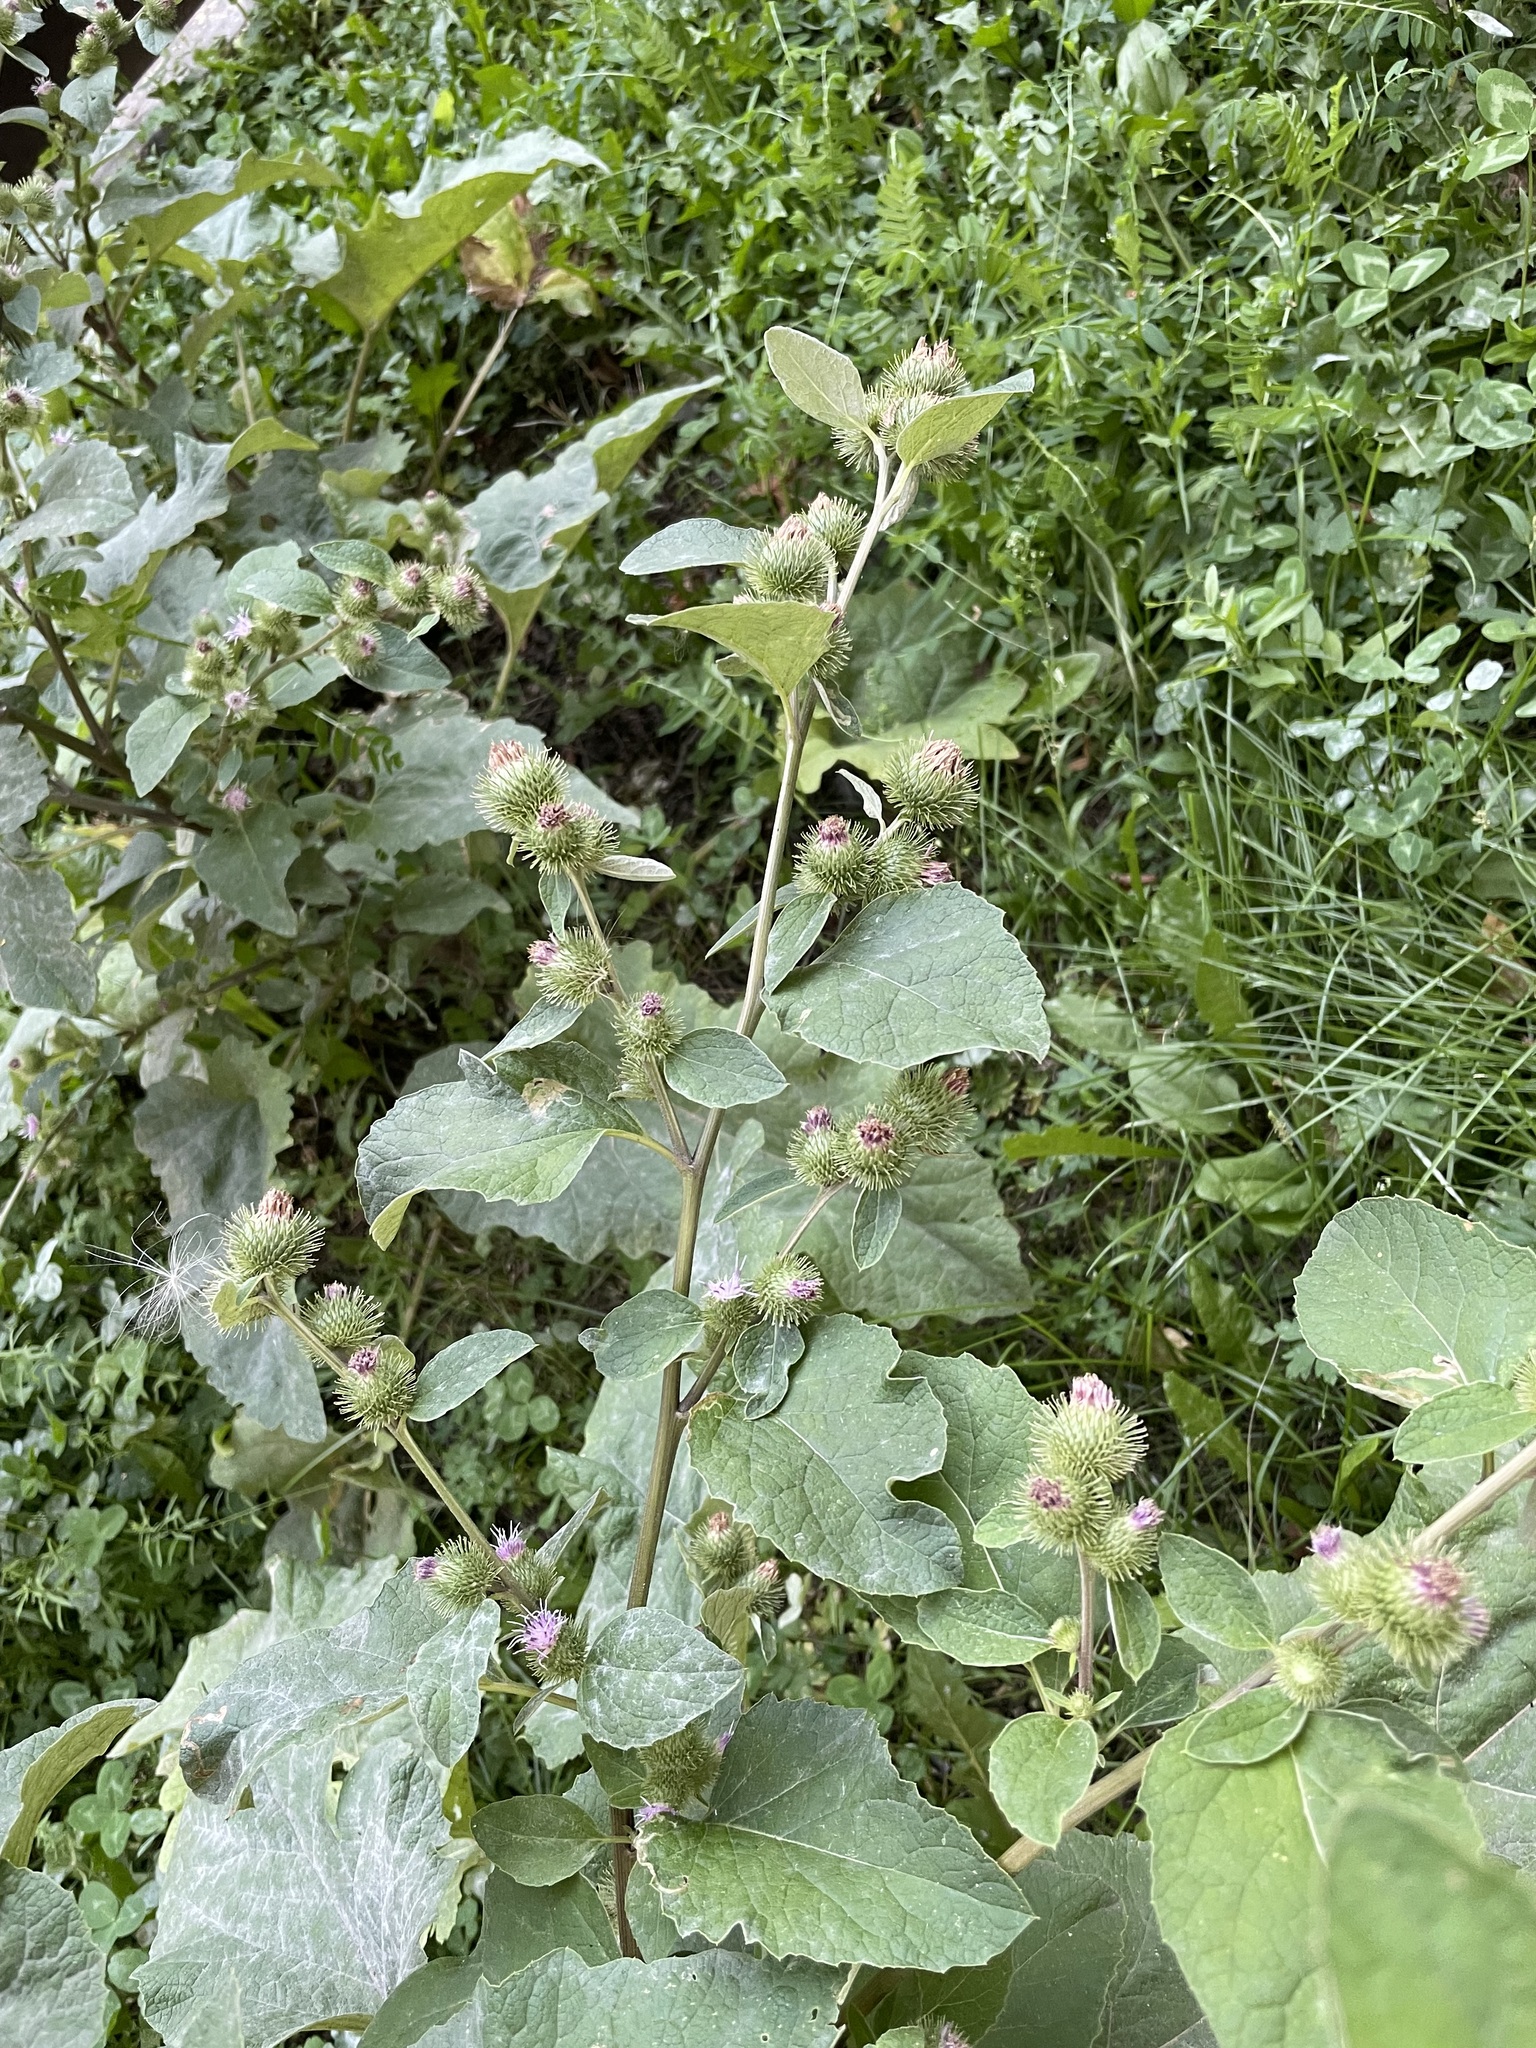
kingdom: Plantae
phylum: Tracheophyta
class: Magnoliopsida
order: Asterales
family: Asteraceae
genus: Arctium
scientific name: Arctium minus
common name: Lesser burdock
